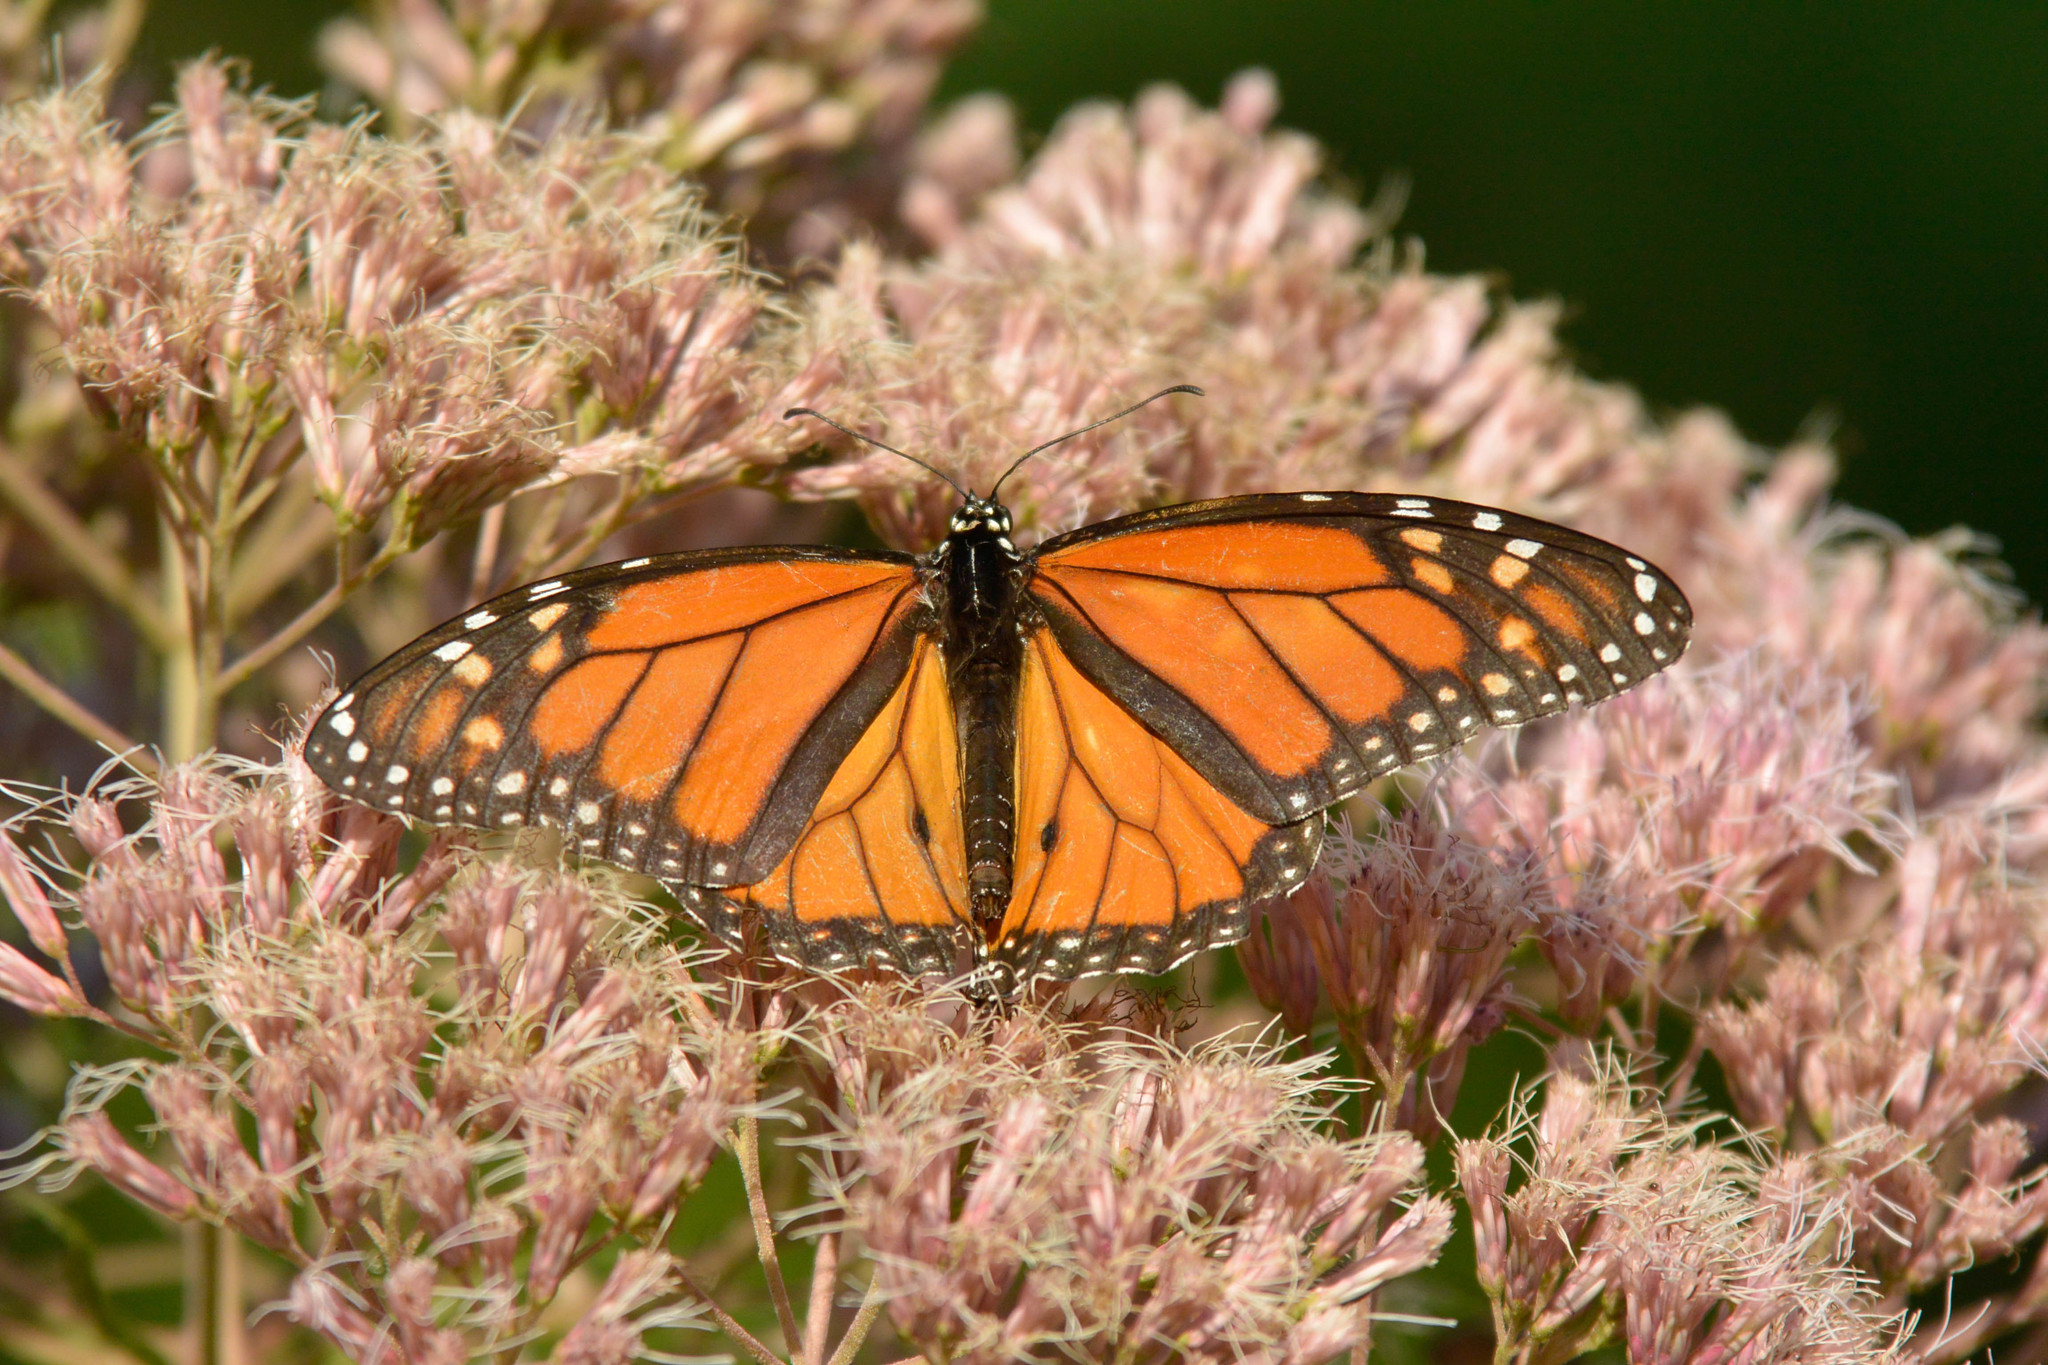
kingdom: Animalia
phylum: Arthropoda
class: Insecta
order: Lepidoptera
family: Nymphalidae
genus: Danaus
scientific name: Danaus plexippus
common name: Monarch
